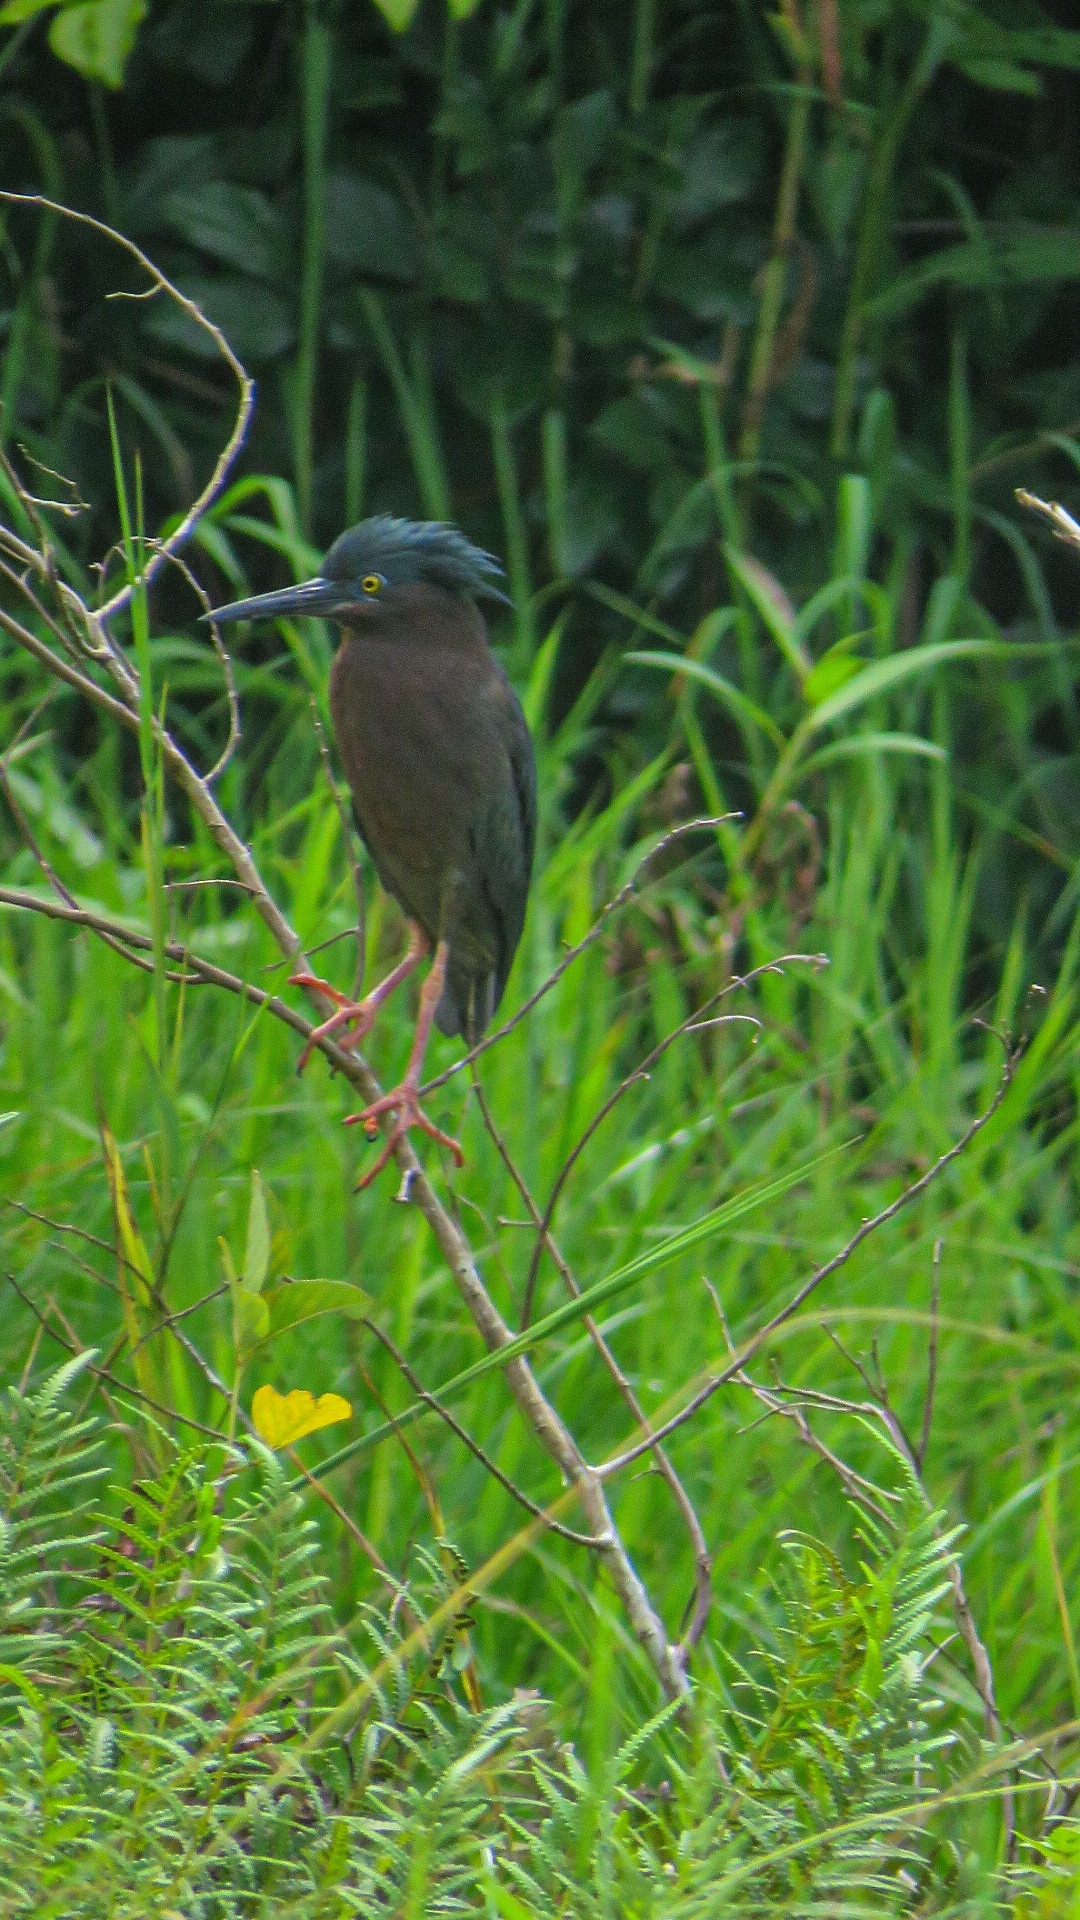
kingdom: Animalia
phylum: Chordata
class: Aves
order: Pelecaniformes
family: Ardeidae
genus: Butorides
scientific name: Butorides virescens
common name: Green heron
